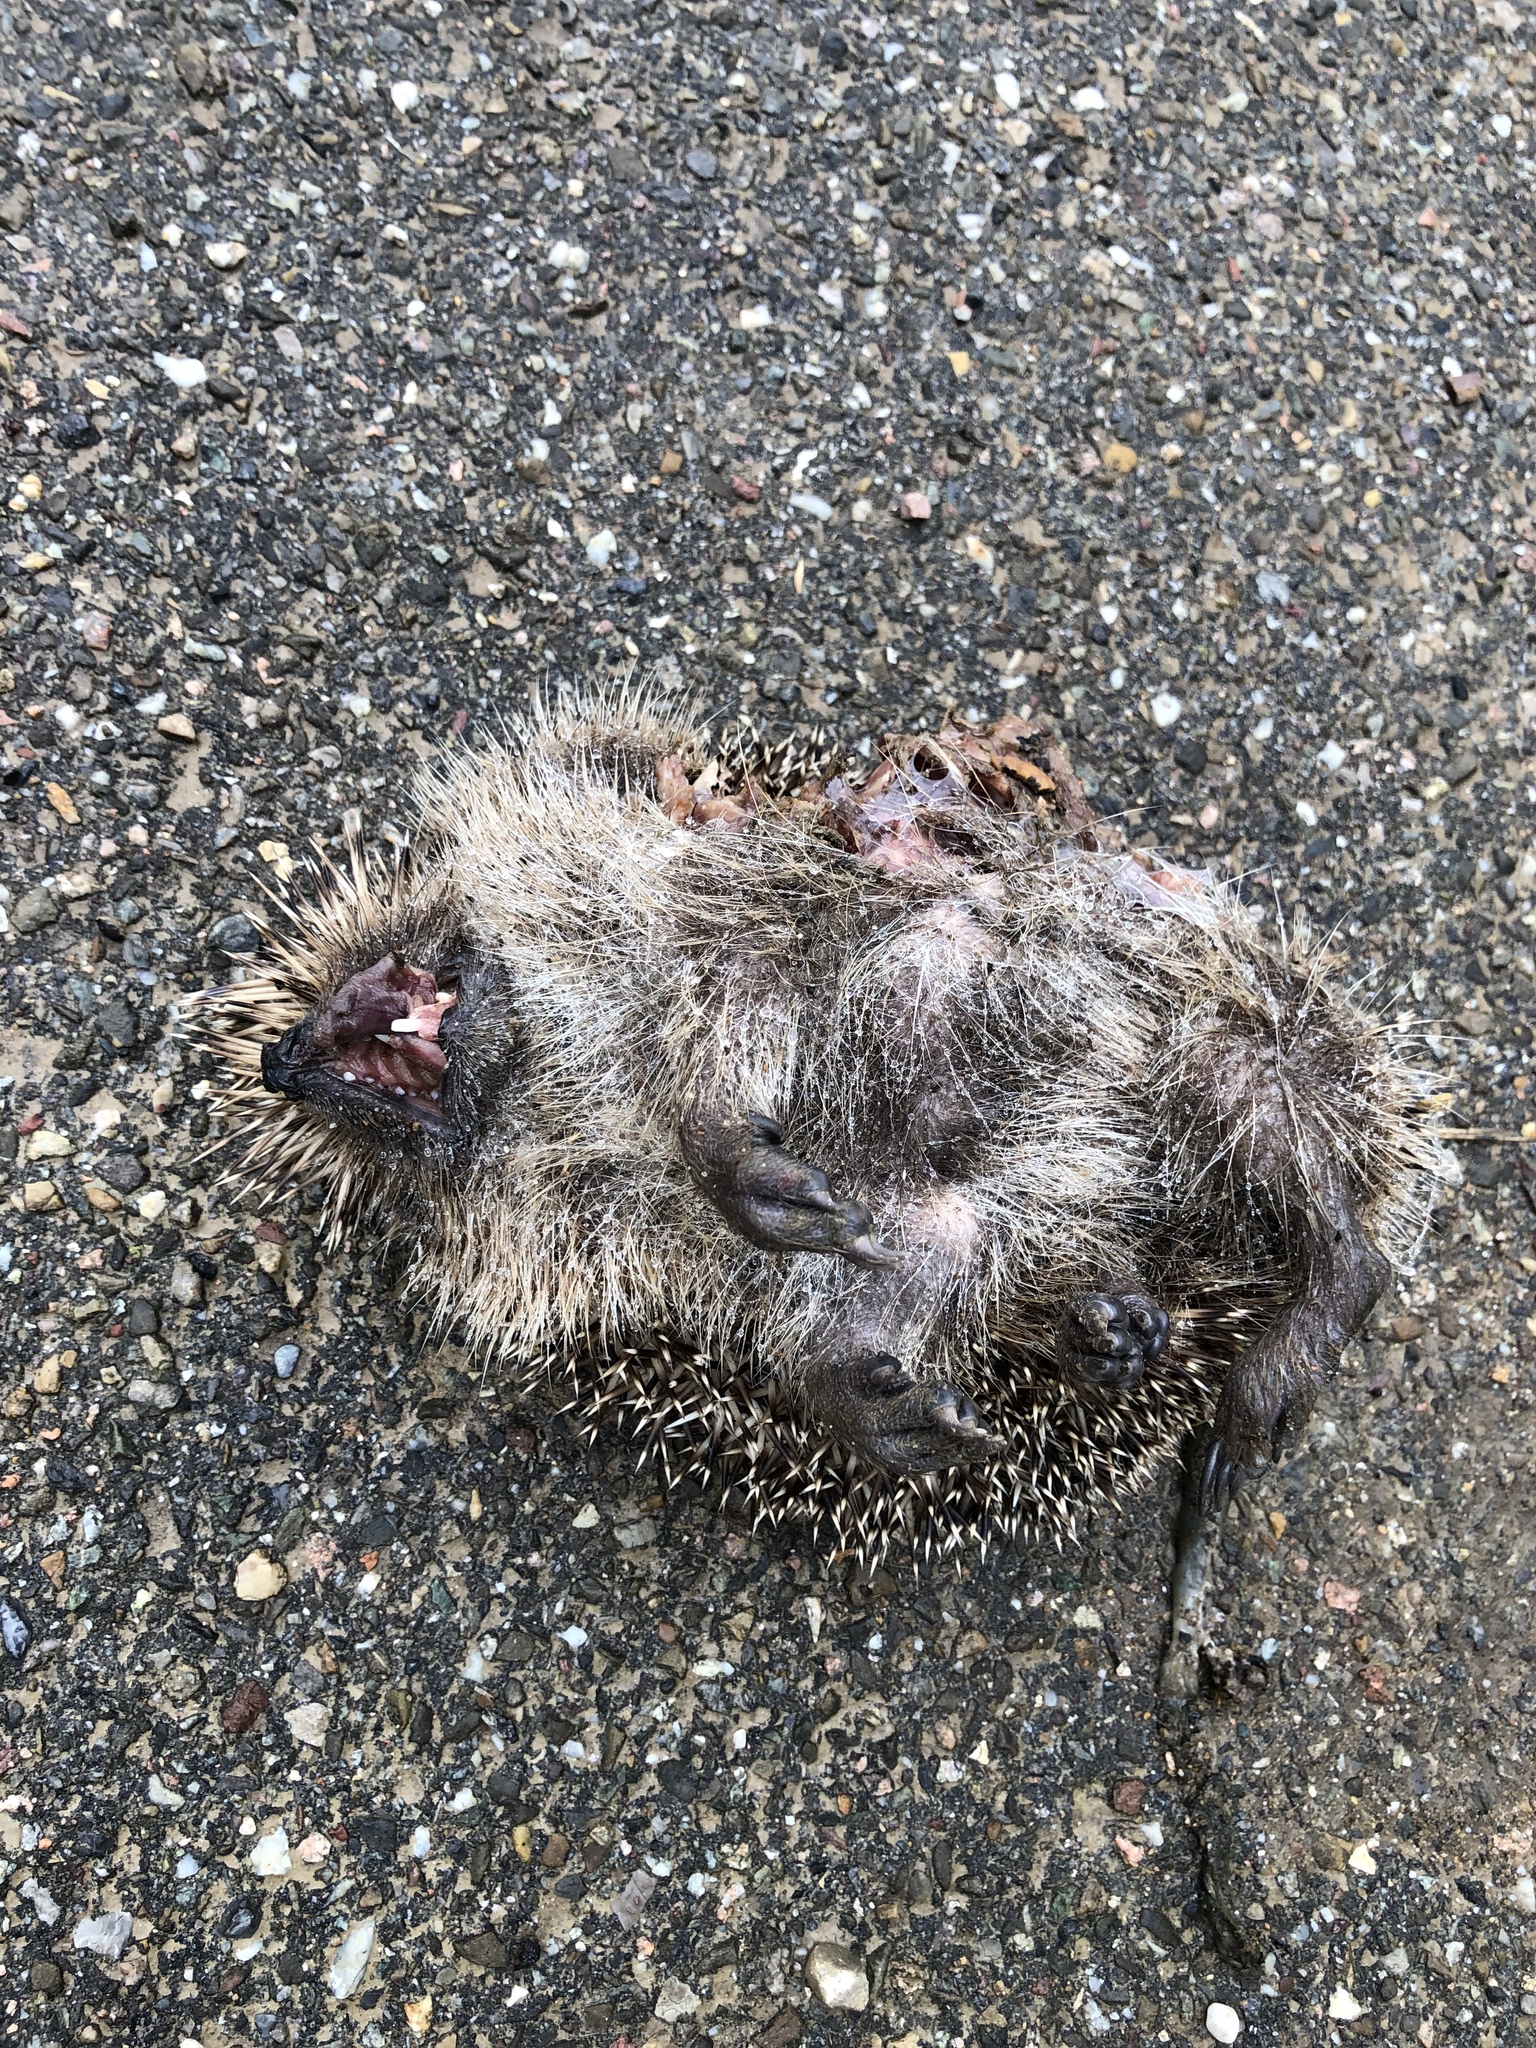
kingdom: Animalia
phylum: Chordata
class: Mammalia
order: Erinaceomorpha
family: Erinaceidae
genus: Erinaceus
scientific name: Erinaceus europaeus
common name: West european hedgehog
